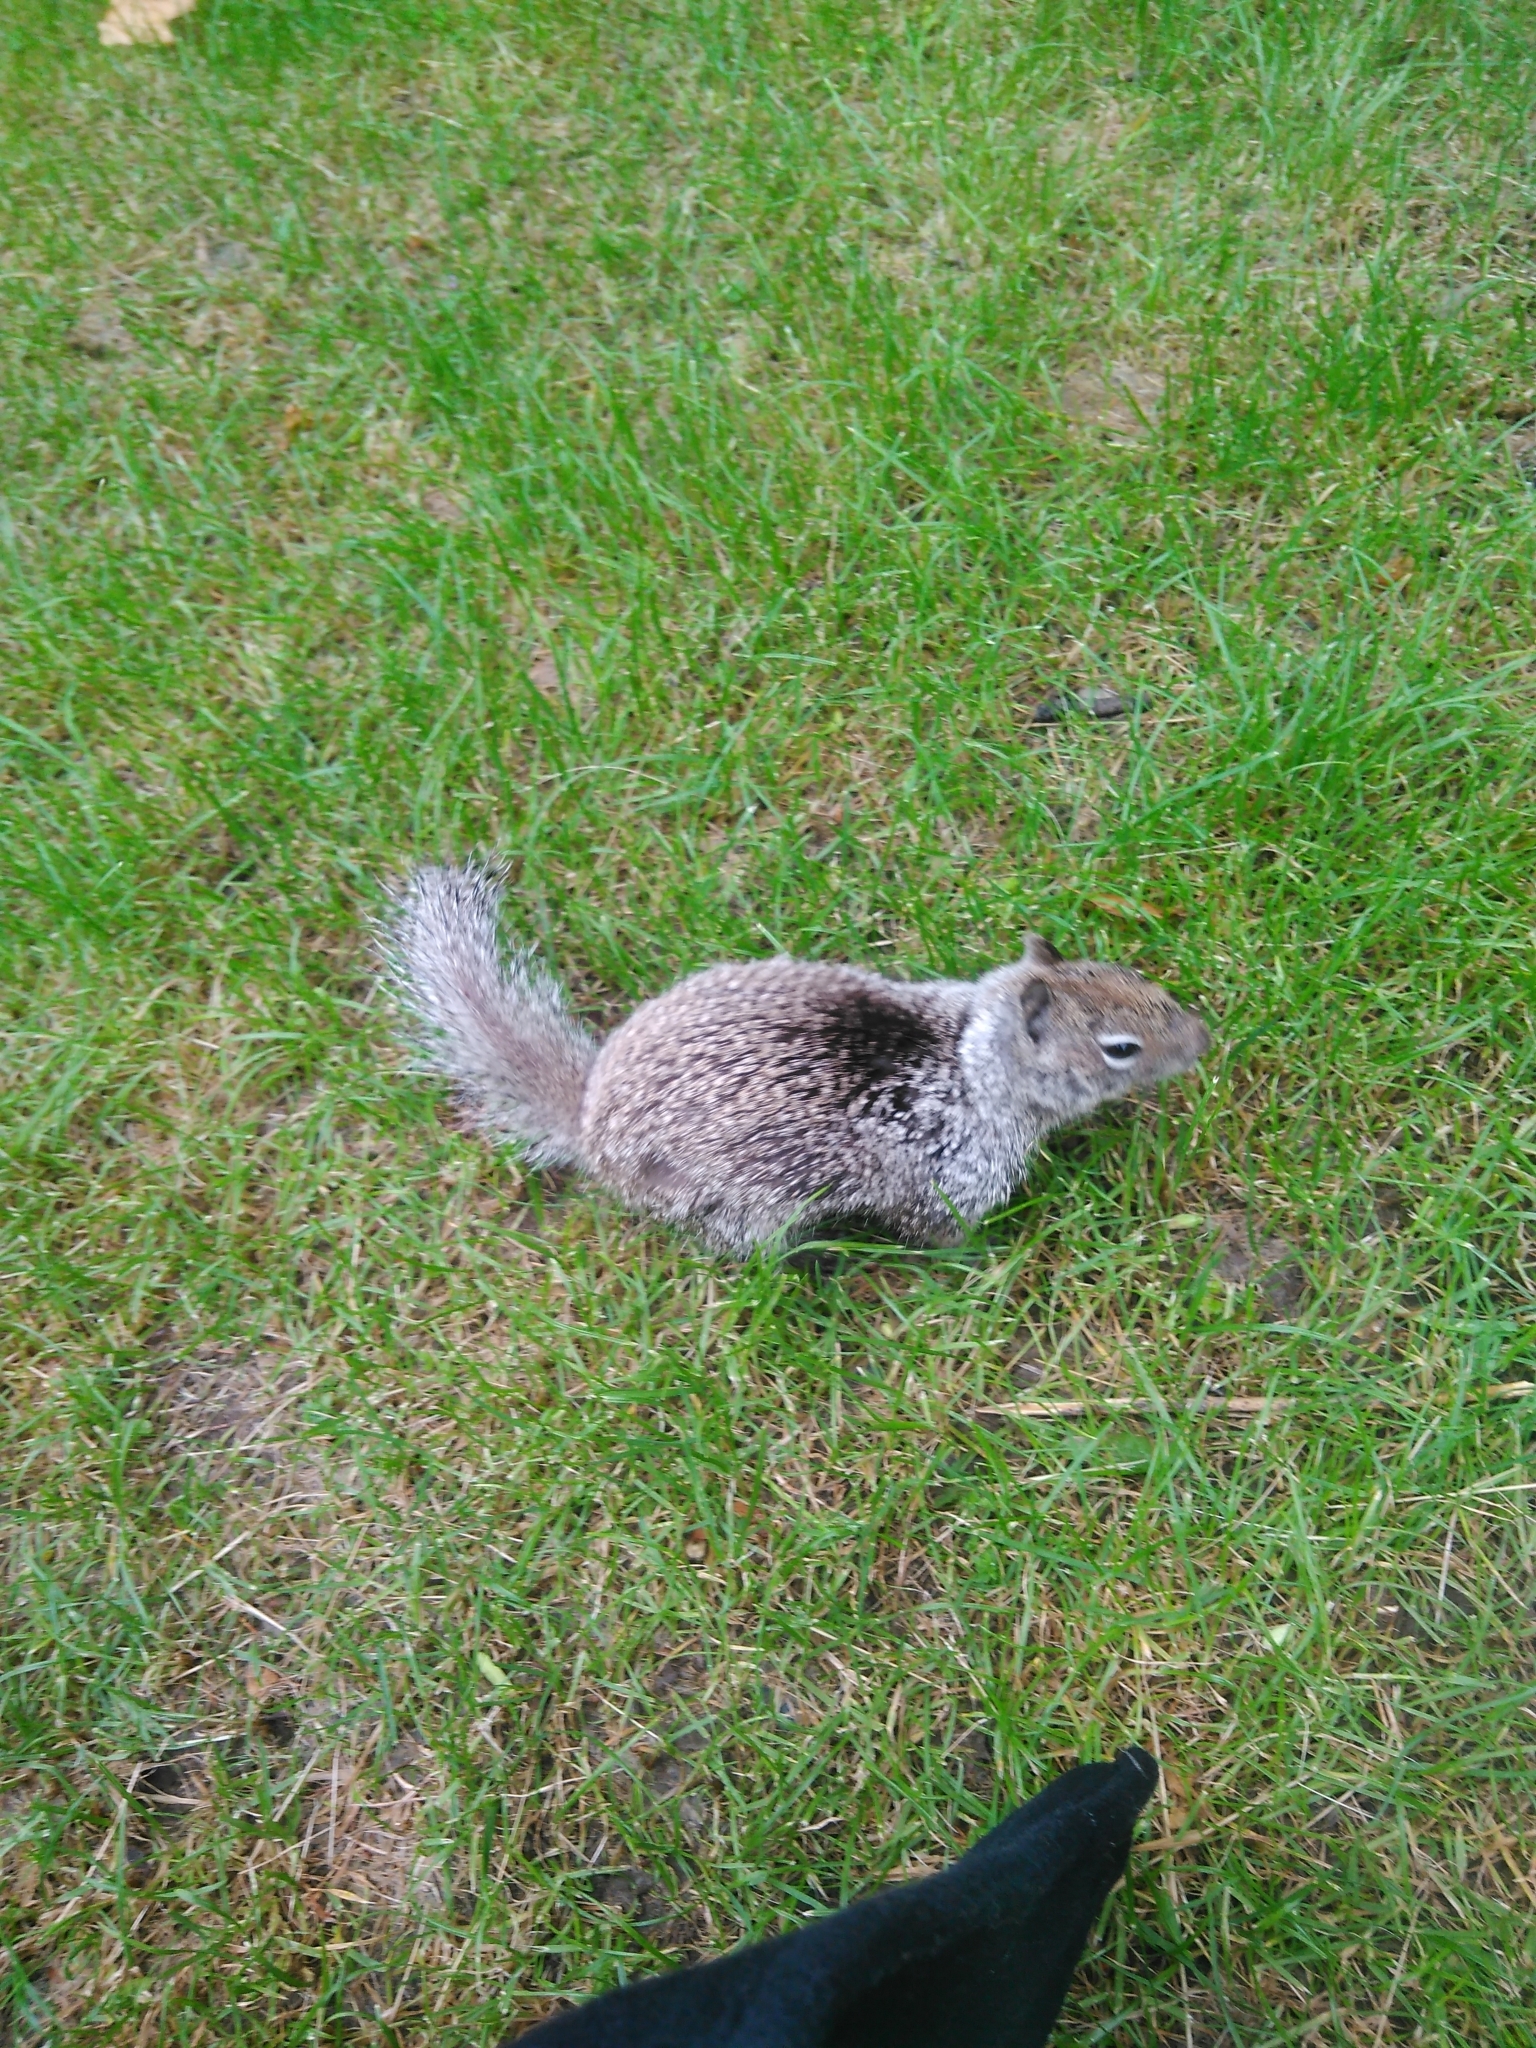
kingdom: Animalia
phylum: Chordata
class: Mammalia
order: Rodentia
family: Sciuridae
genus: Otospermophilus
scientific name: Otospermophilus beecheyi
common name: California ground squirrel
